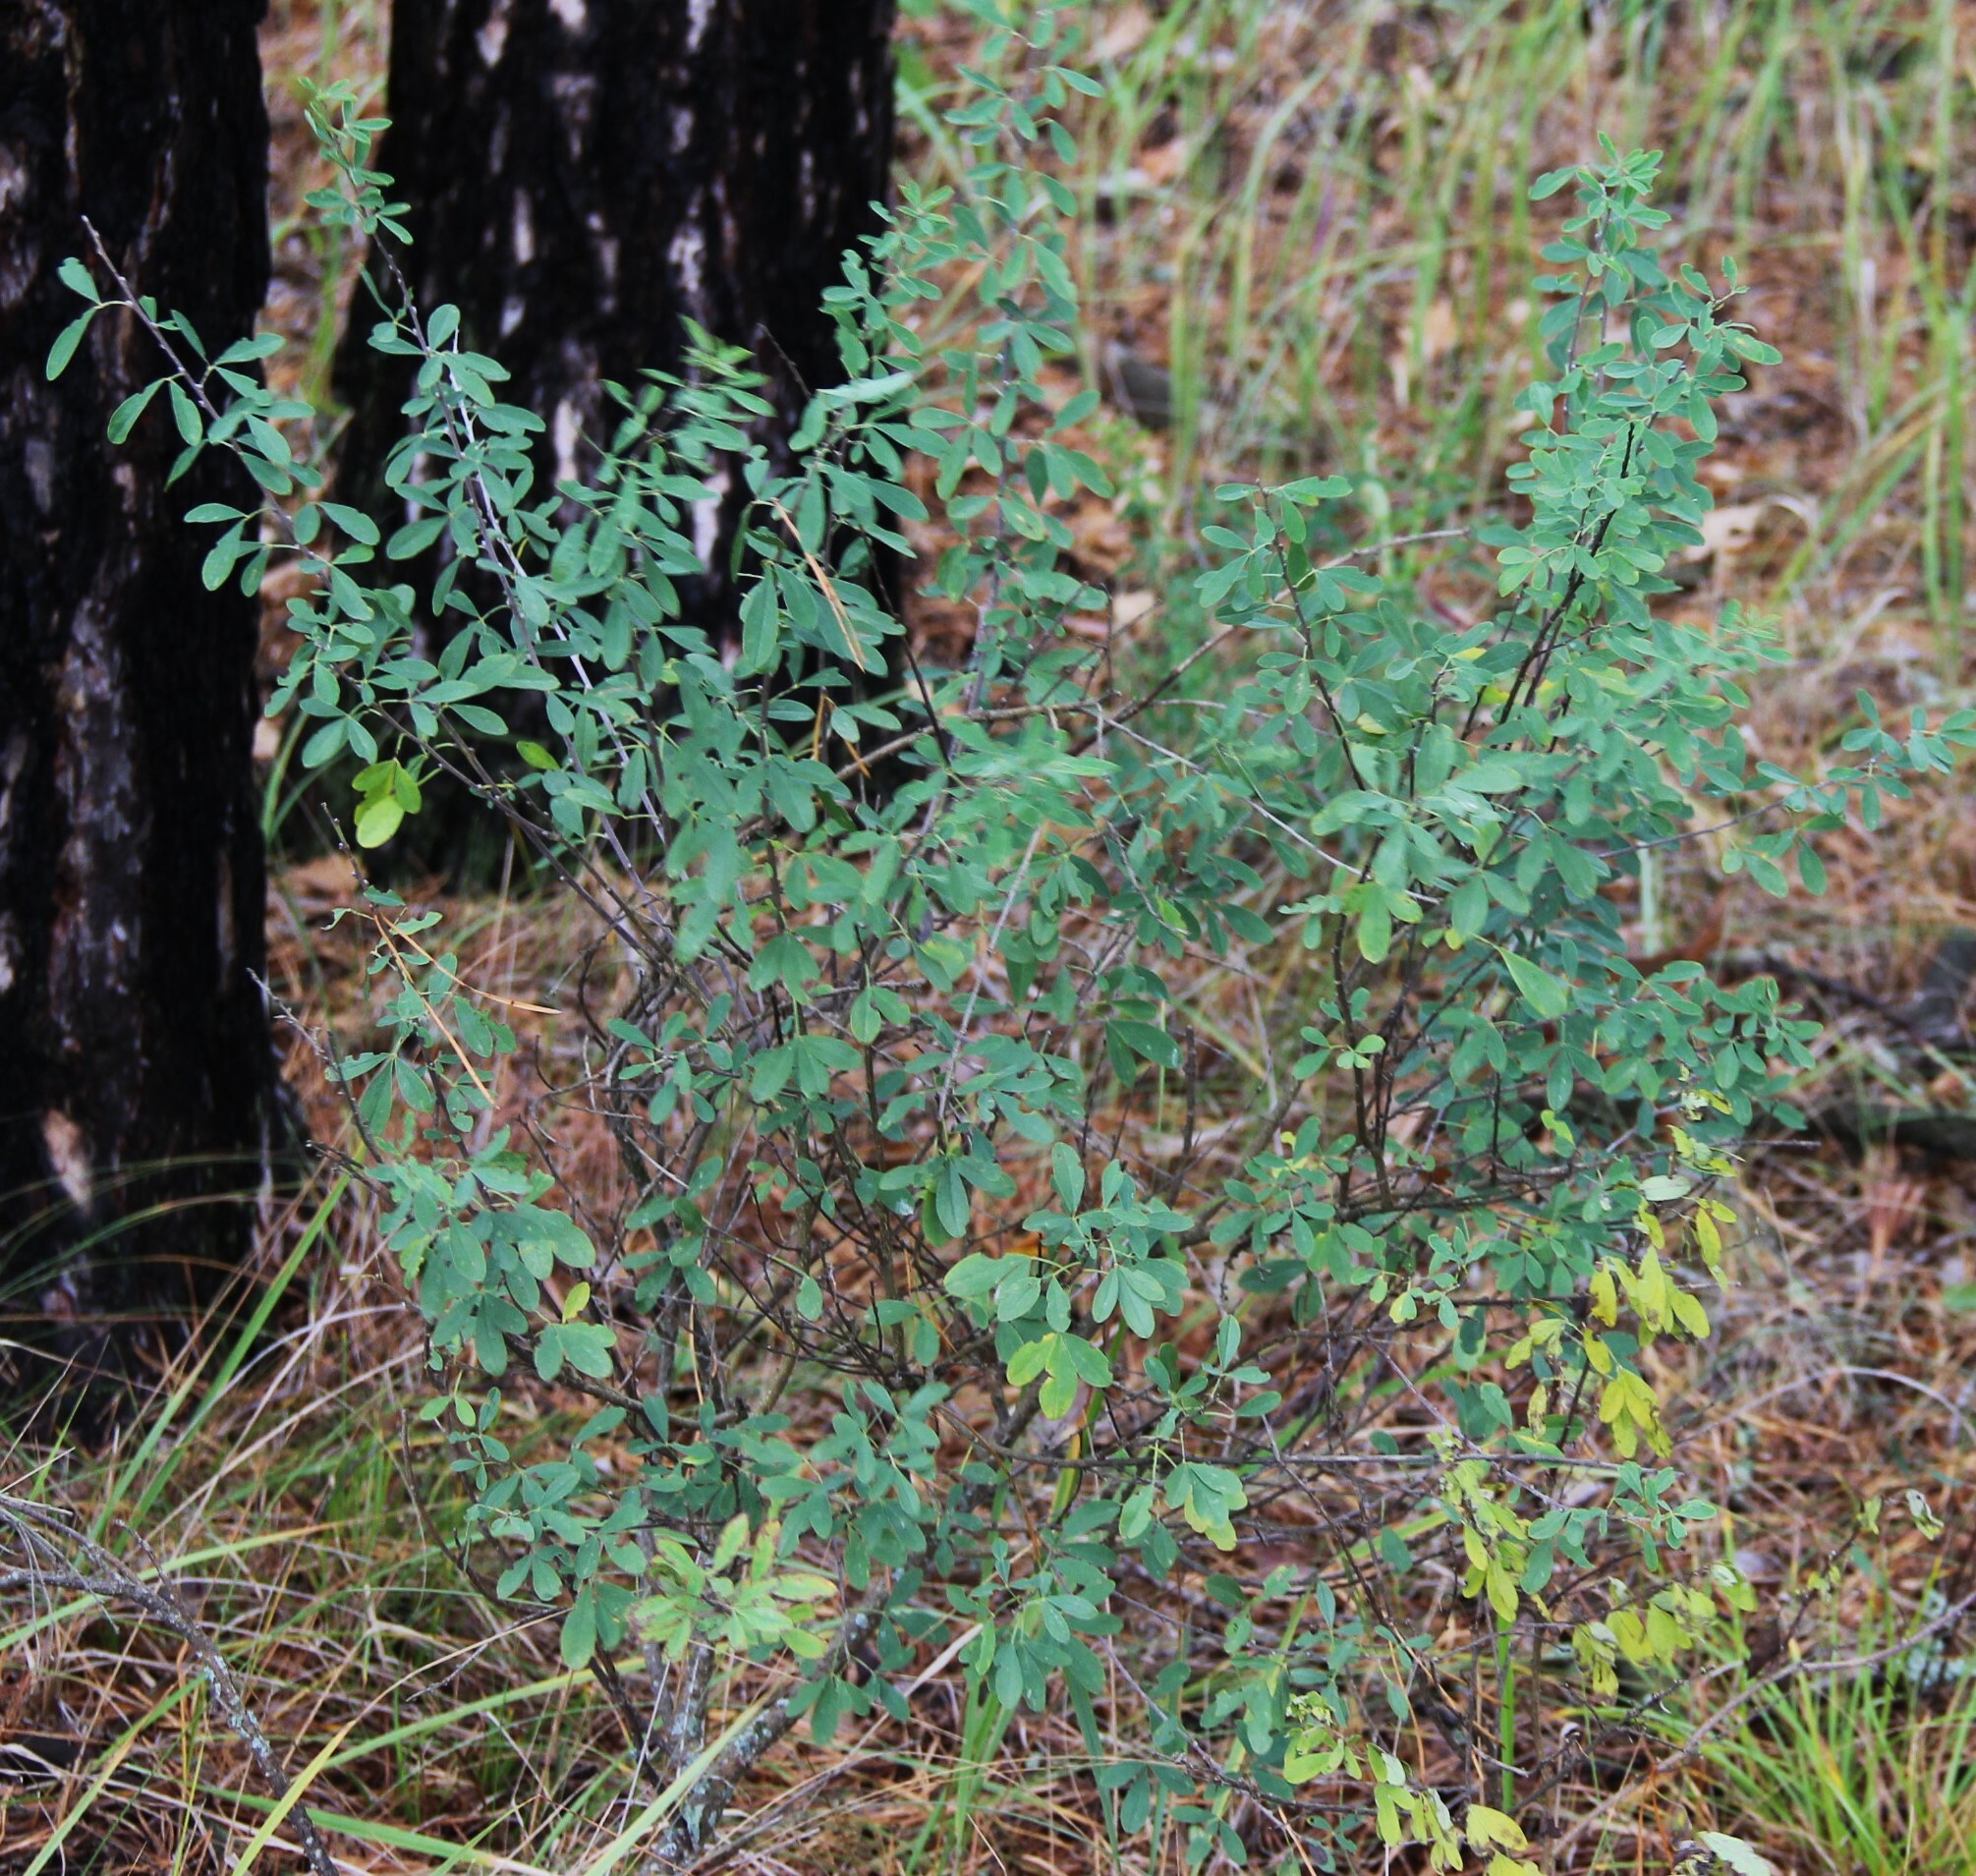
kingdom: Plantae
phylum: Tracheophyta
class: Magnoliopsida
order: Fabales
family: Fabaceae
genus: Chamaecytisus
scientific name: Chamaecytisus ruthenicus
